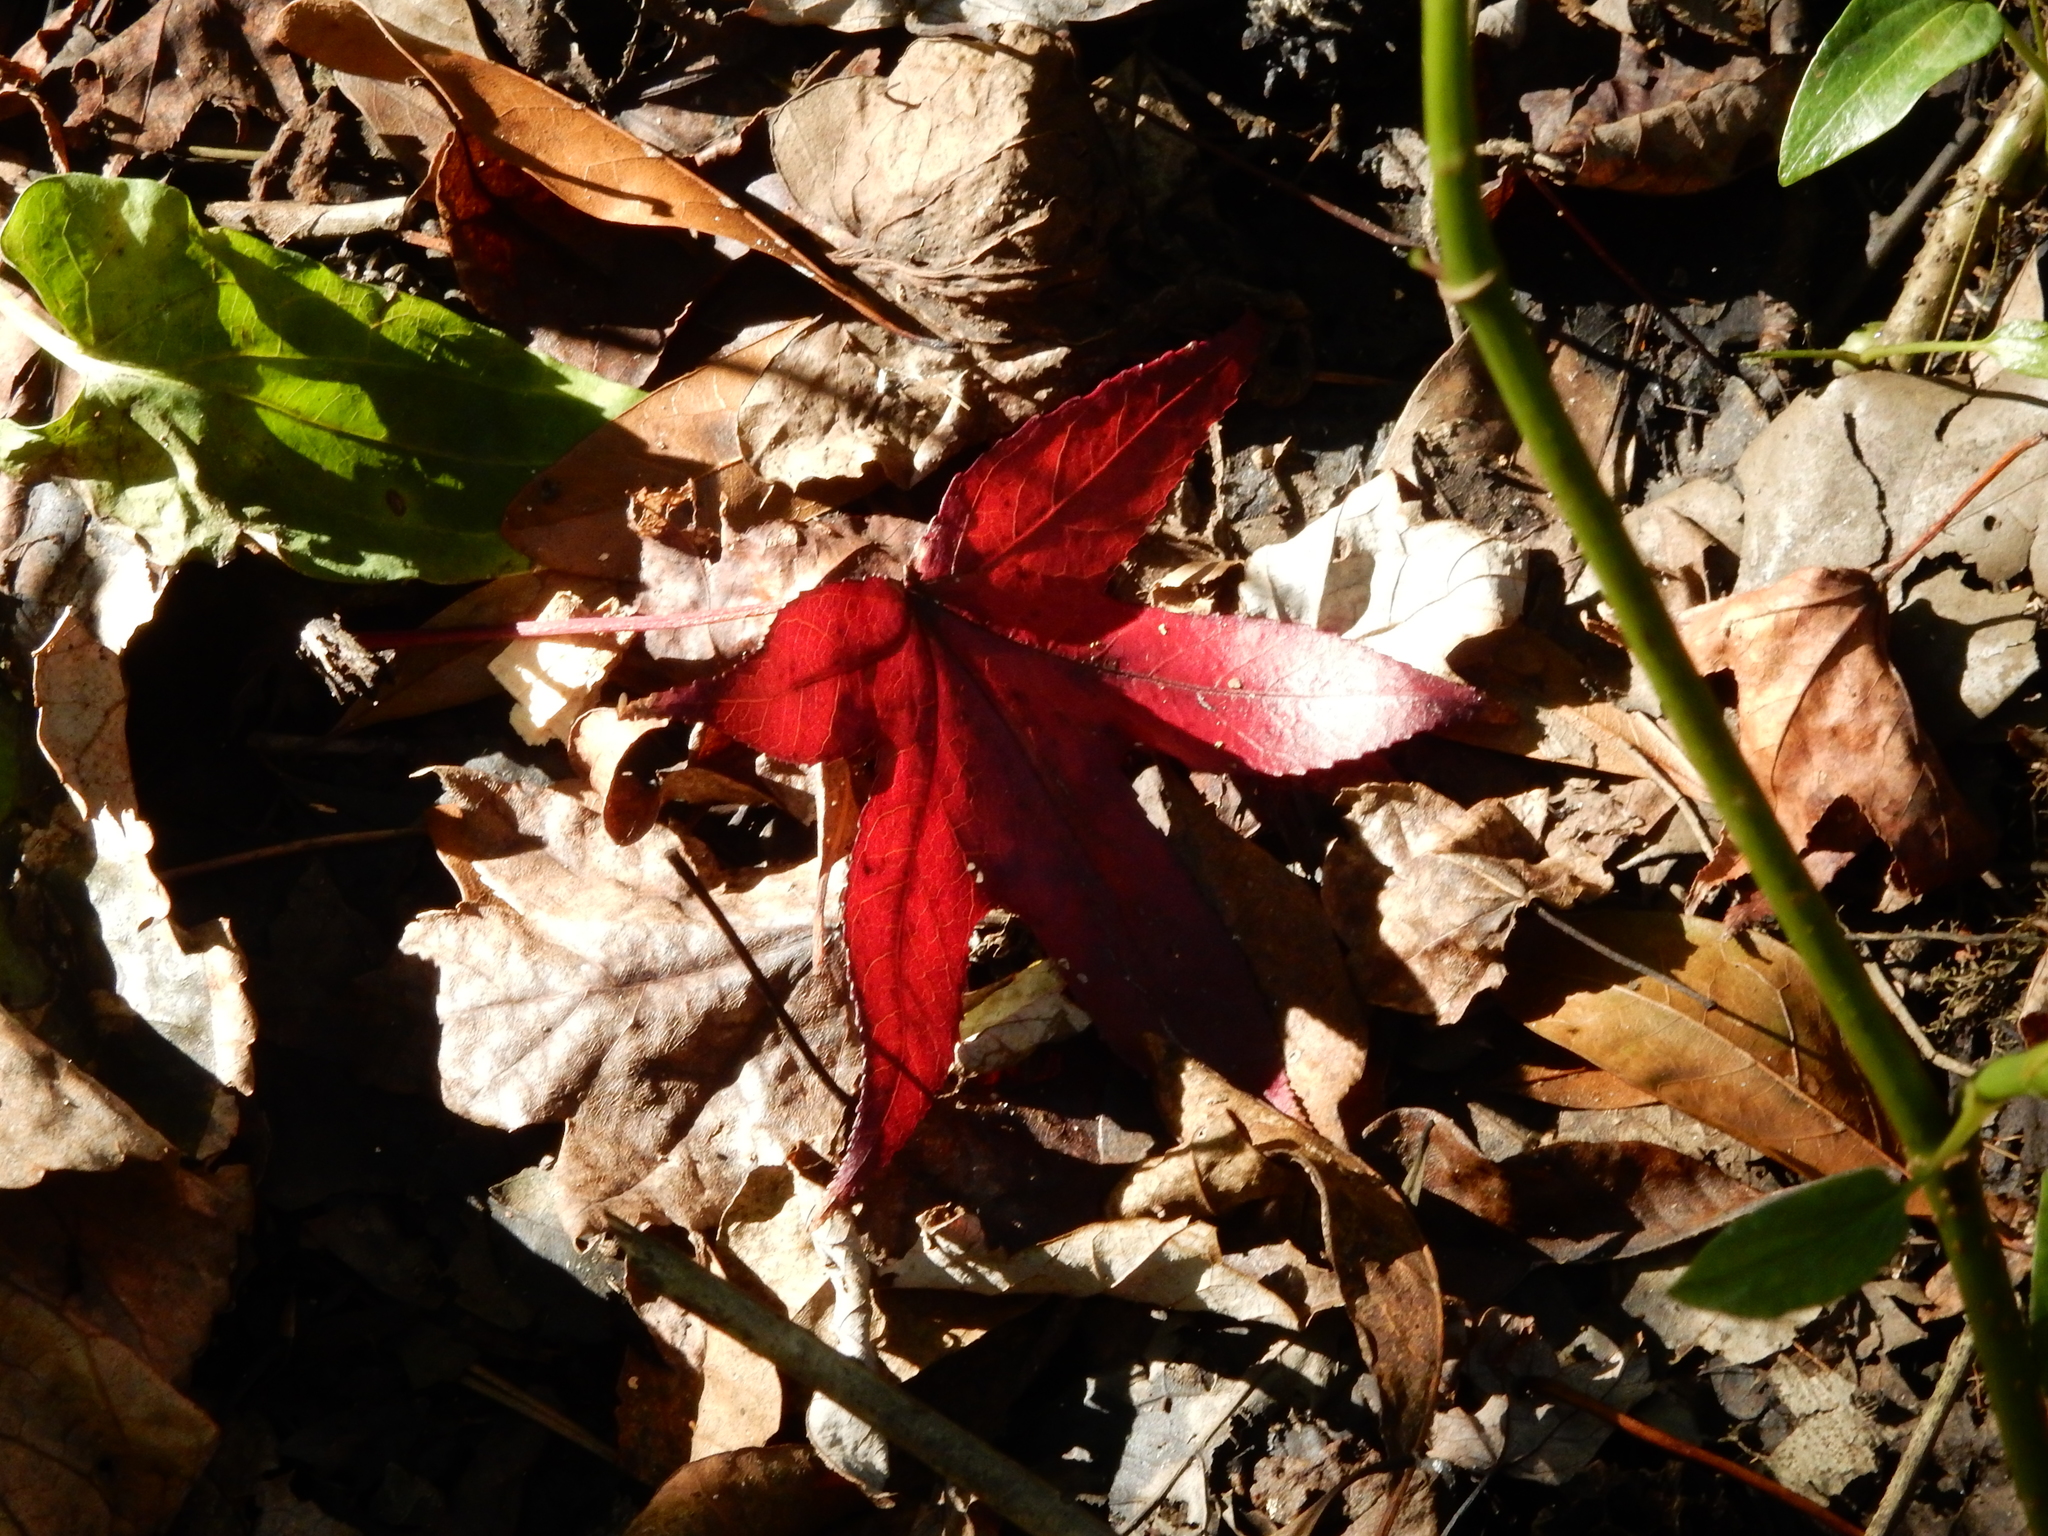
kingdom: Plantae
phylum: Tracheophyta
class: Magnoliopsida
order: Saxifragales
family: Altingiaceae
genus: Liquidambar
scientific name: Liquidambar styraciflua
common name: Sweet gum
